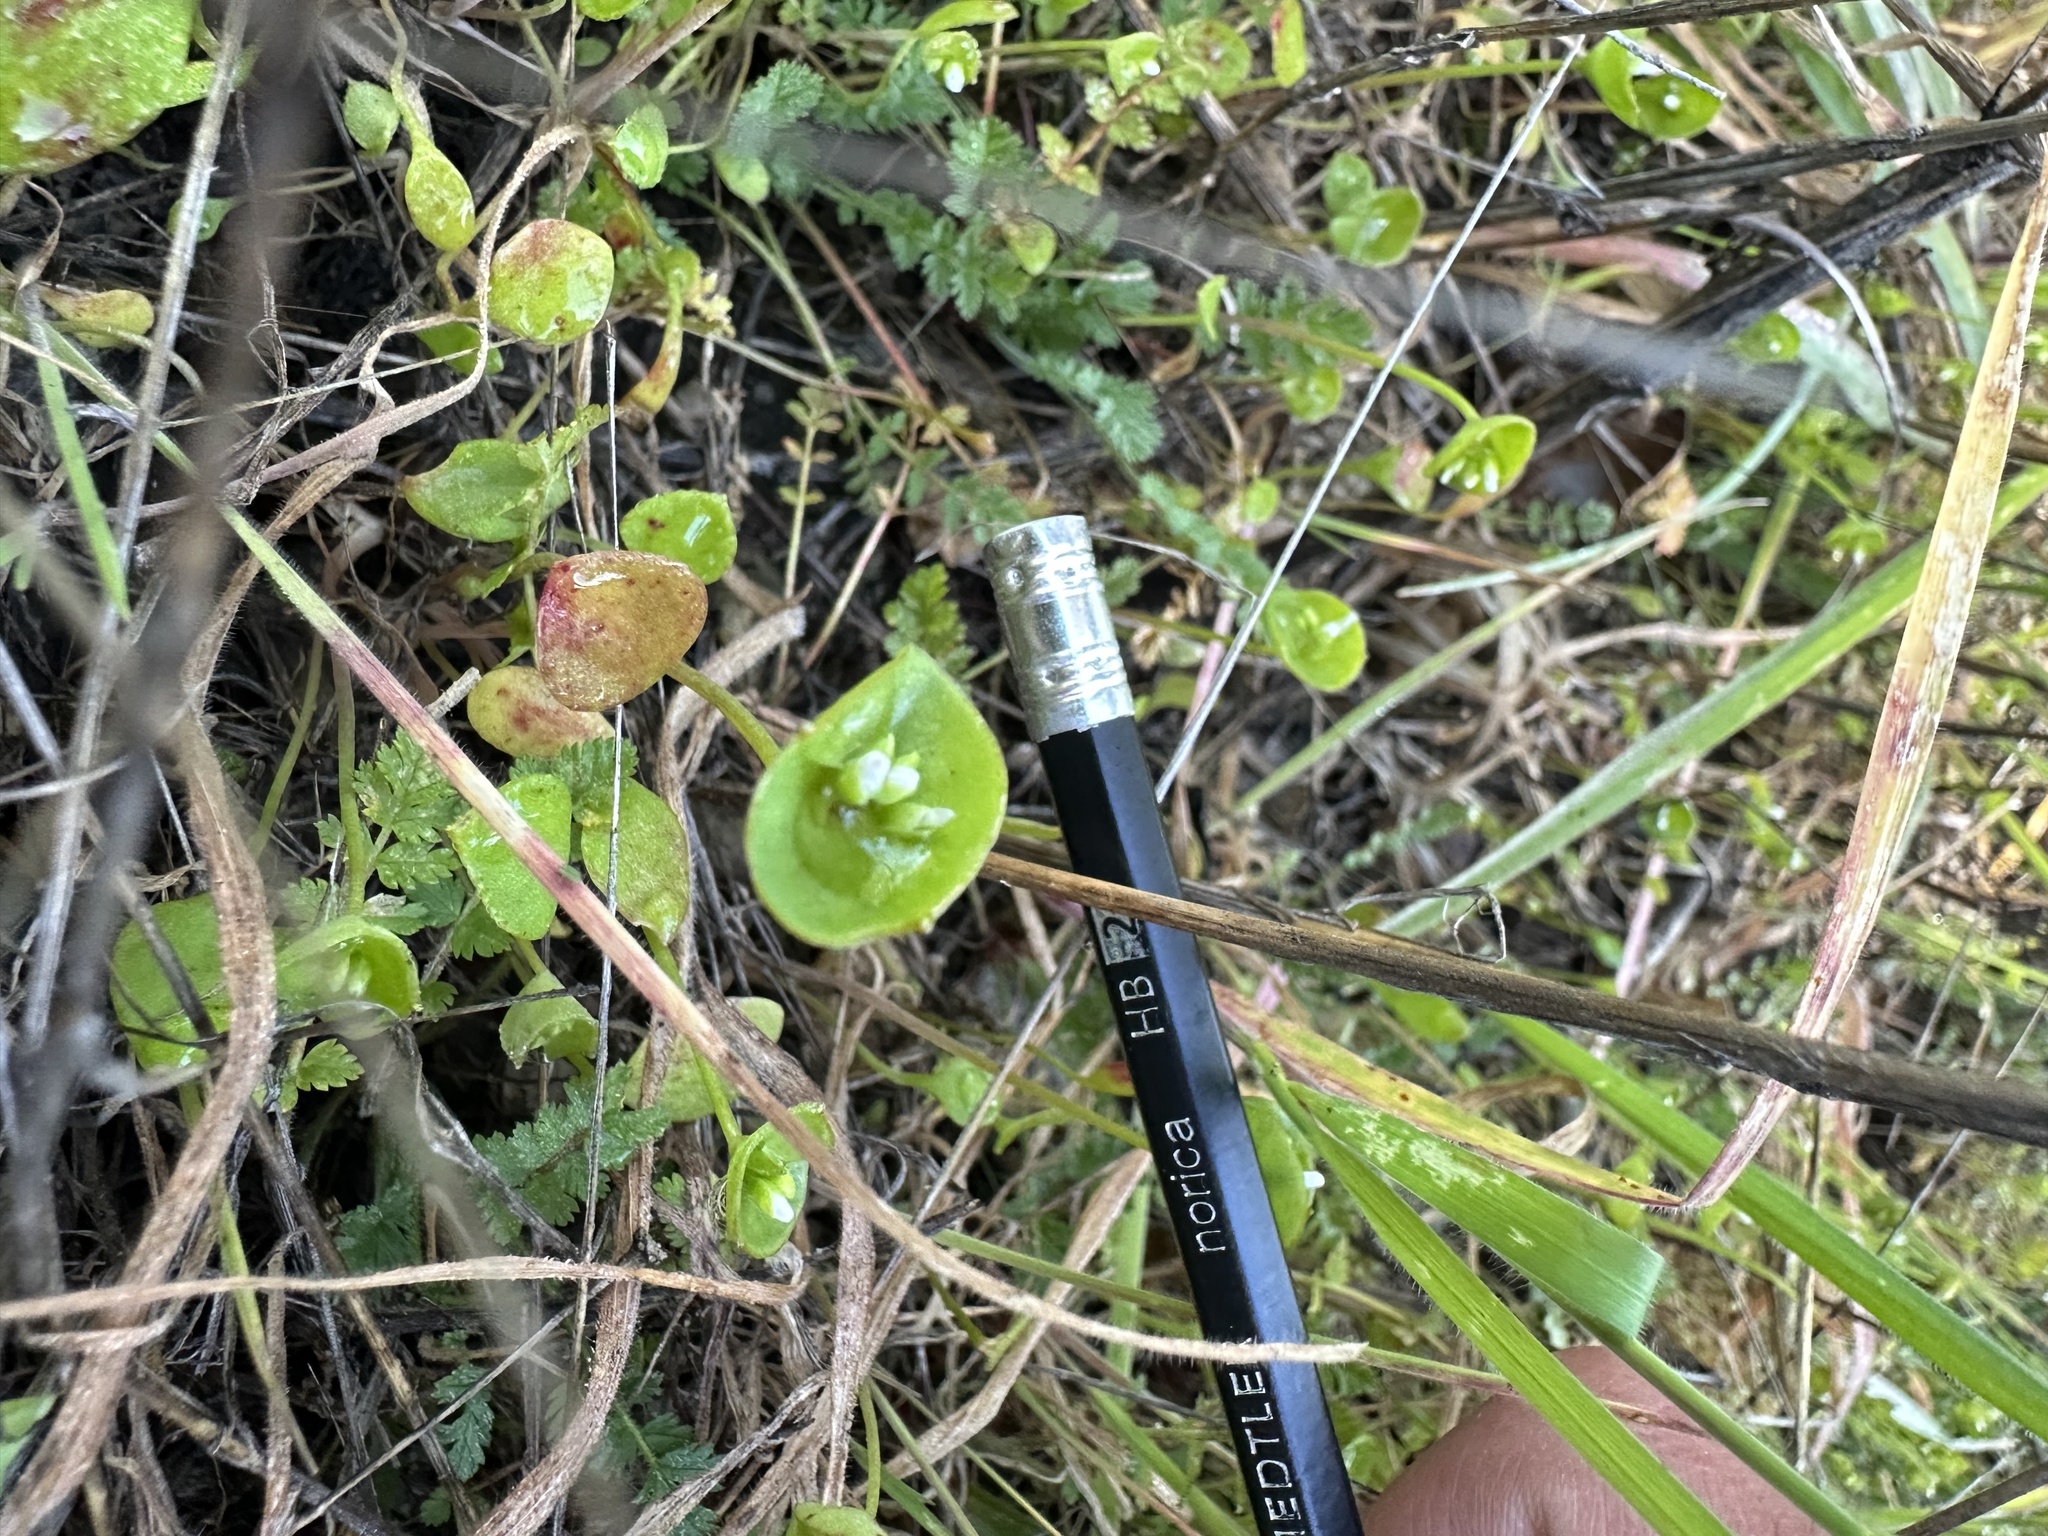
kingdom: Plantae
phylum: Tracheophyta
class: Magnoliopsida
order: Caryophyllales
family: Montiaceae
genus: Claytonia
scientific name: Claytonia perfoliata
